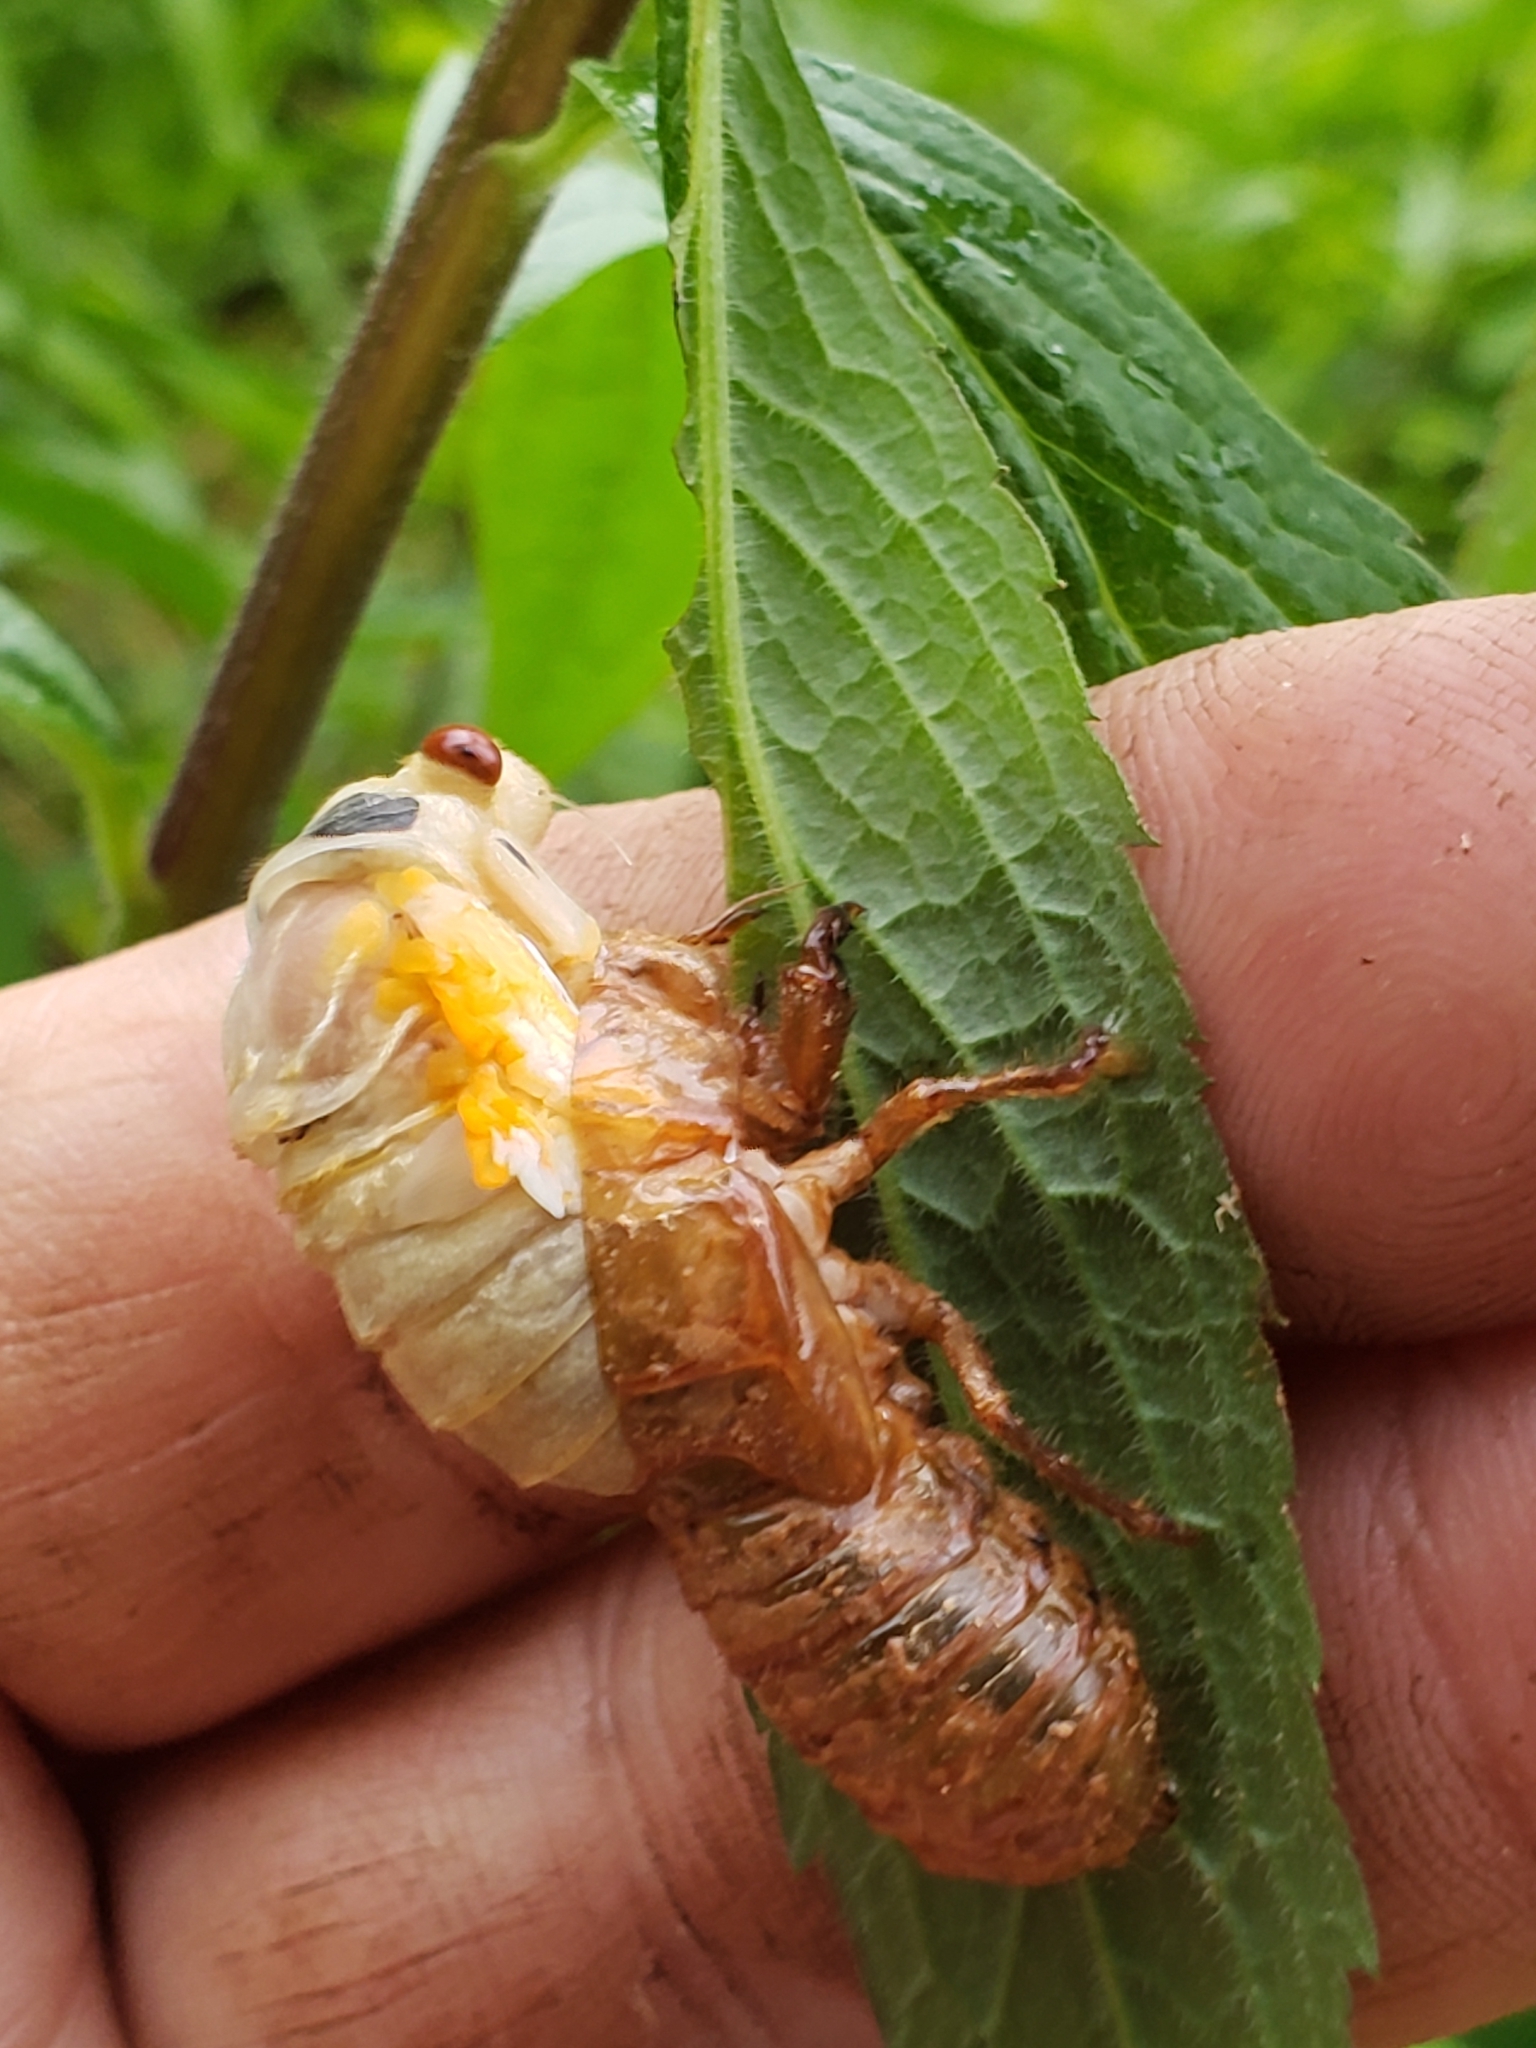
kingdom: Animalia
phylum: Arthropoda
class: Insecta
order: Hemiptera
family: Cicadidae
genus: Magicicada
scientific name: Magicicada
